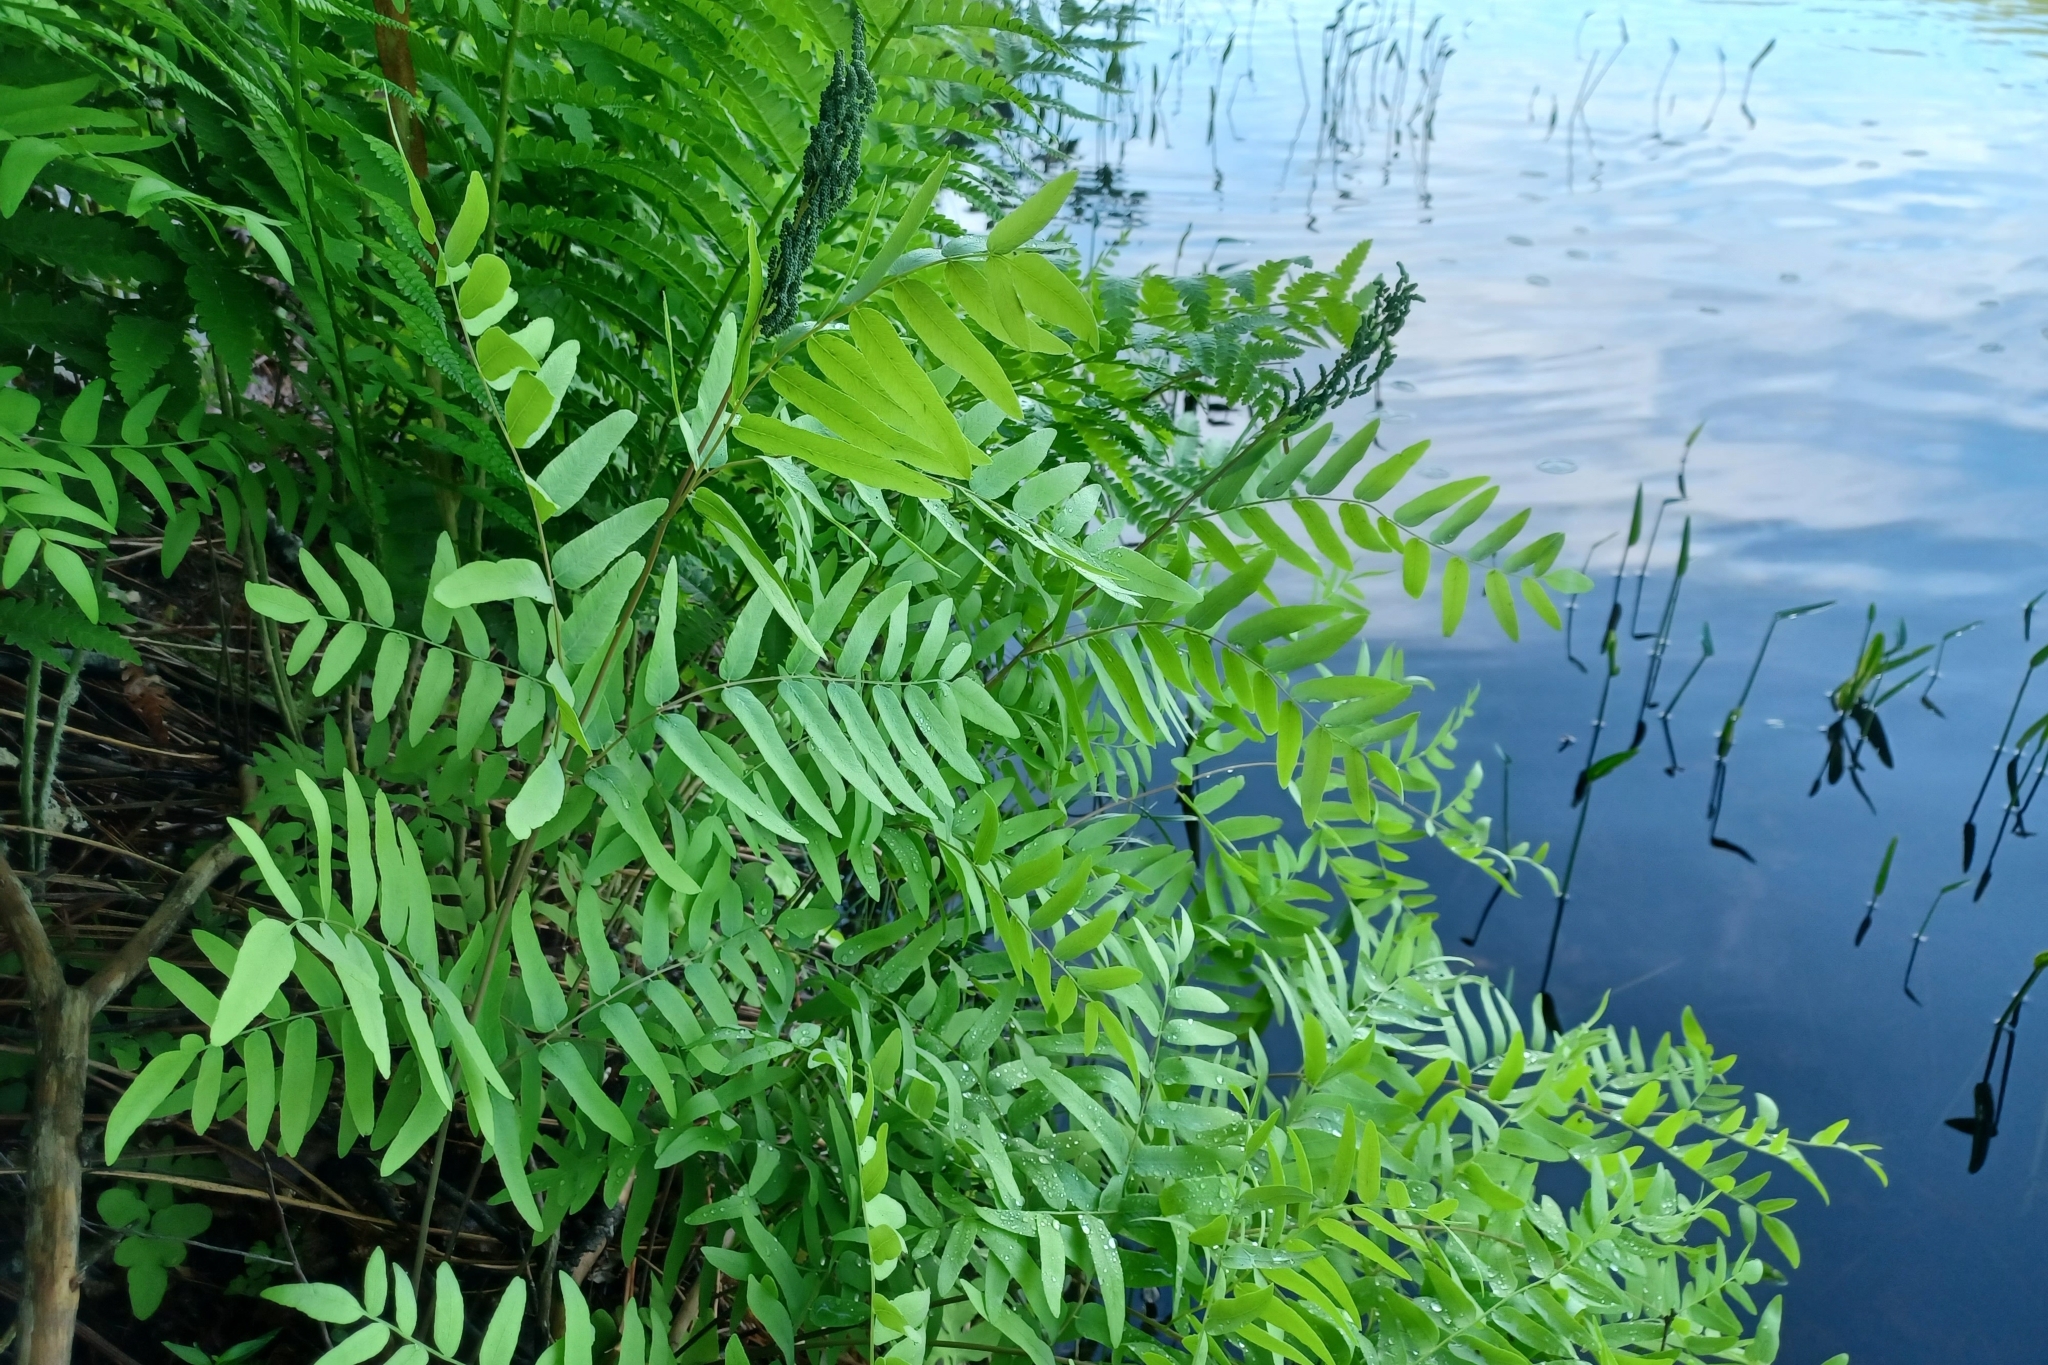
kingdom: Plantae
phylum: Tracheophyta
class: Polypodiopsida
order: Osmundales
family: Osmundaceae
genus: Osmunda
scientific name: Osmunda spectabilis
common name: American royal fern
